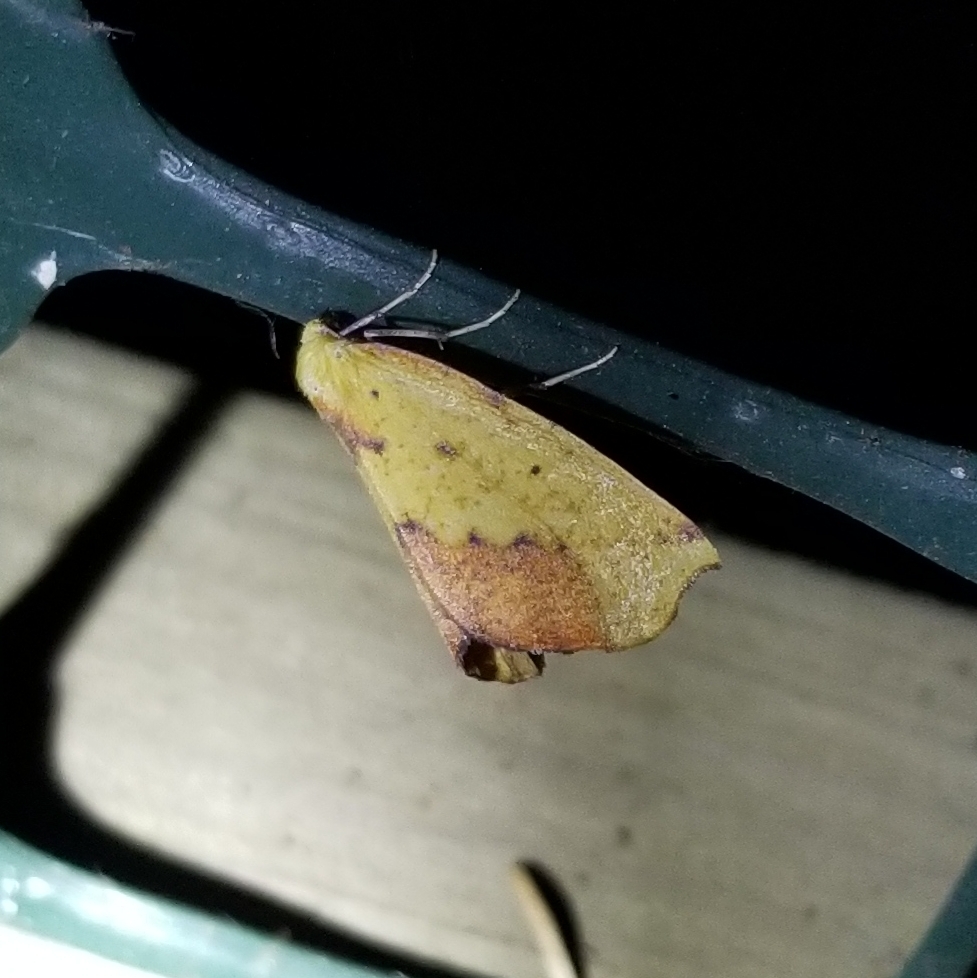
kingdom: Animalia
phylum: Arthropoda
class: Insecta
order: Lepidoptera
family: Geometridae
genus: Sicya
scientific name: Sicya macularia
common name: Sharp-lined yellow
